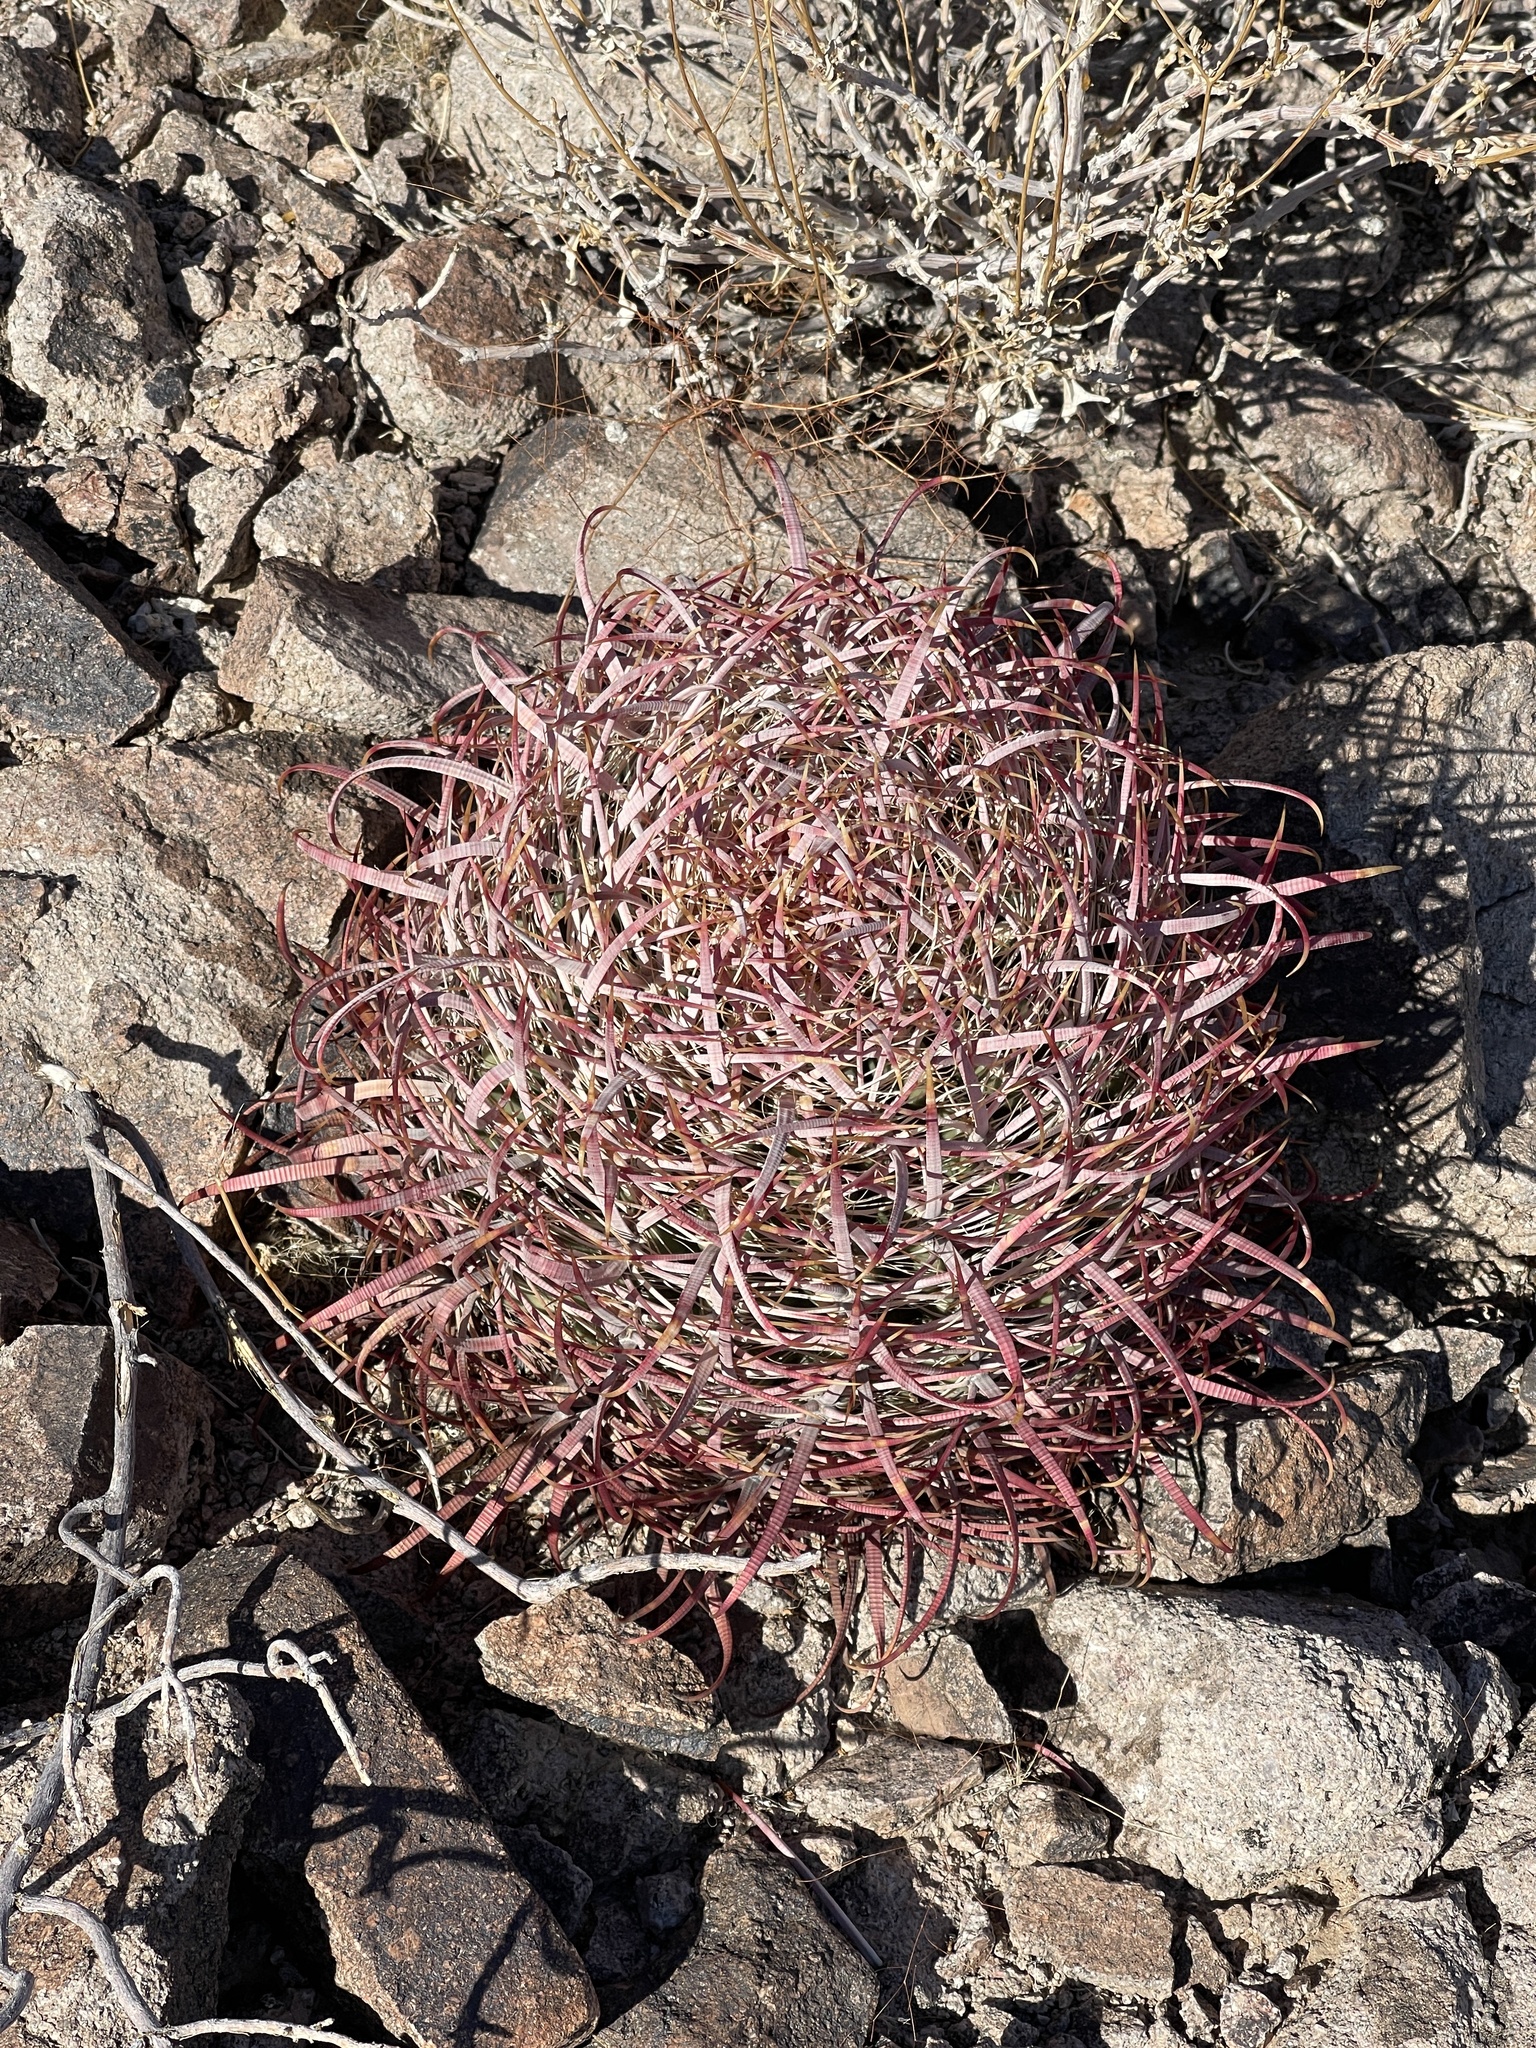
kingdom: Plantae
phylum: Tracheophyta
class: Magnoliopsida
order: Caryophyllales
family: Cactaceae
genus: Ferocactus
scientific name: Ferocactus cylindraceus
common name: California barrel cactus
